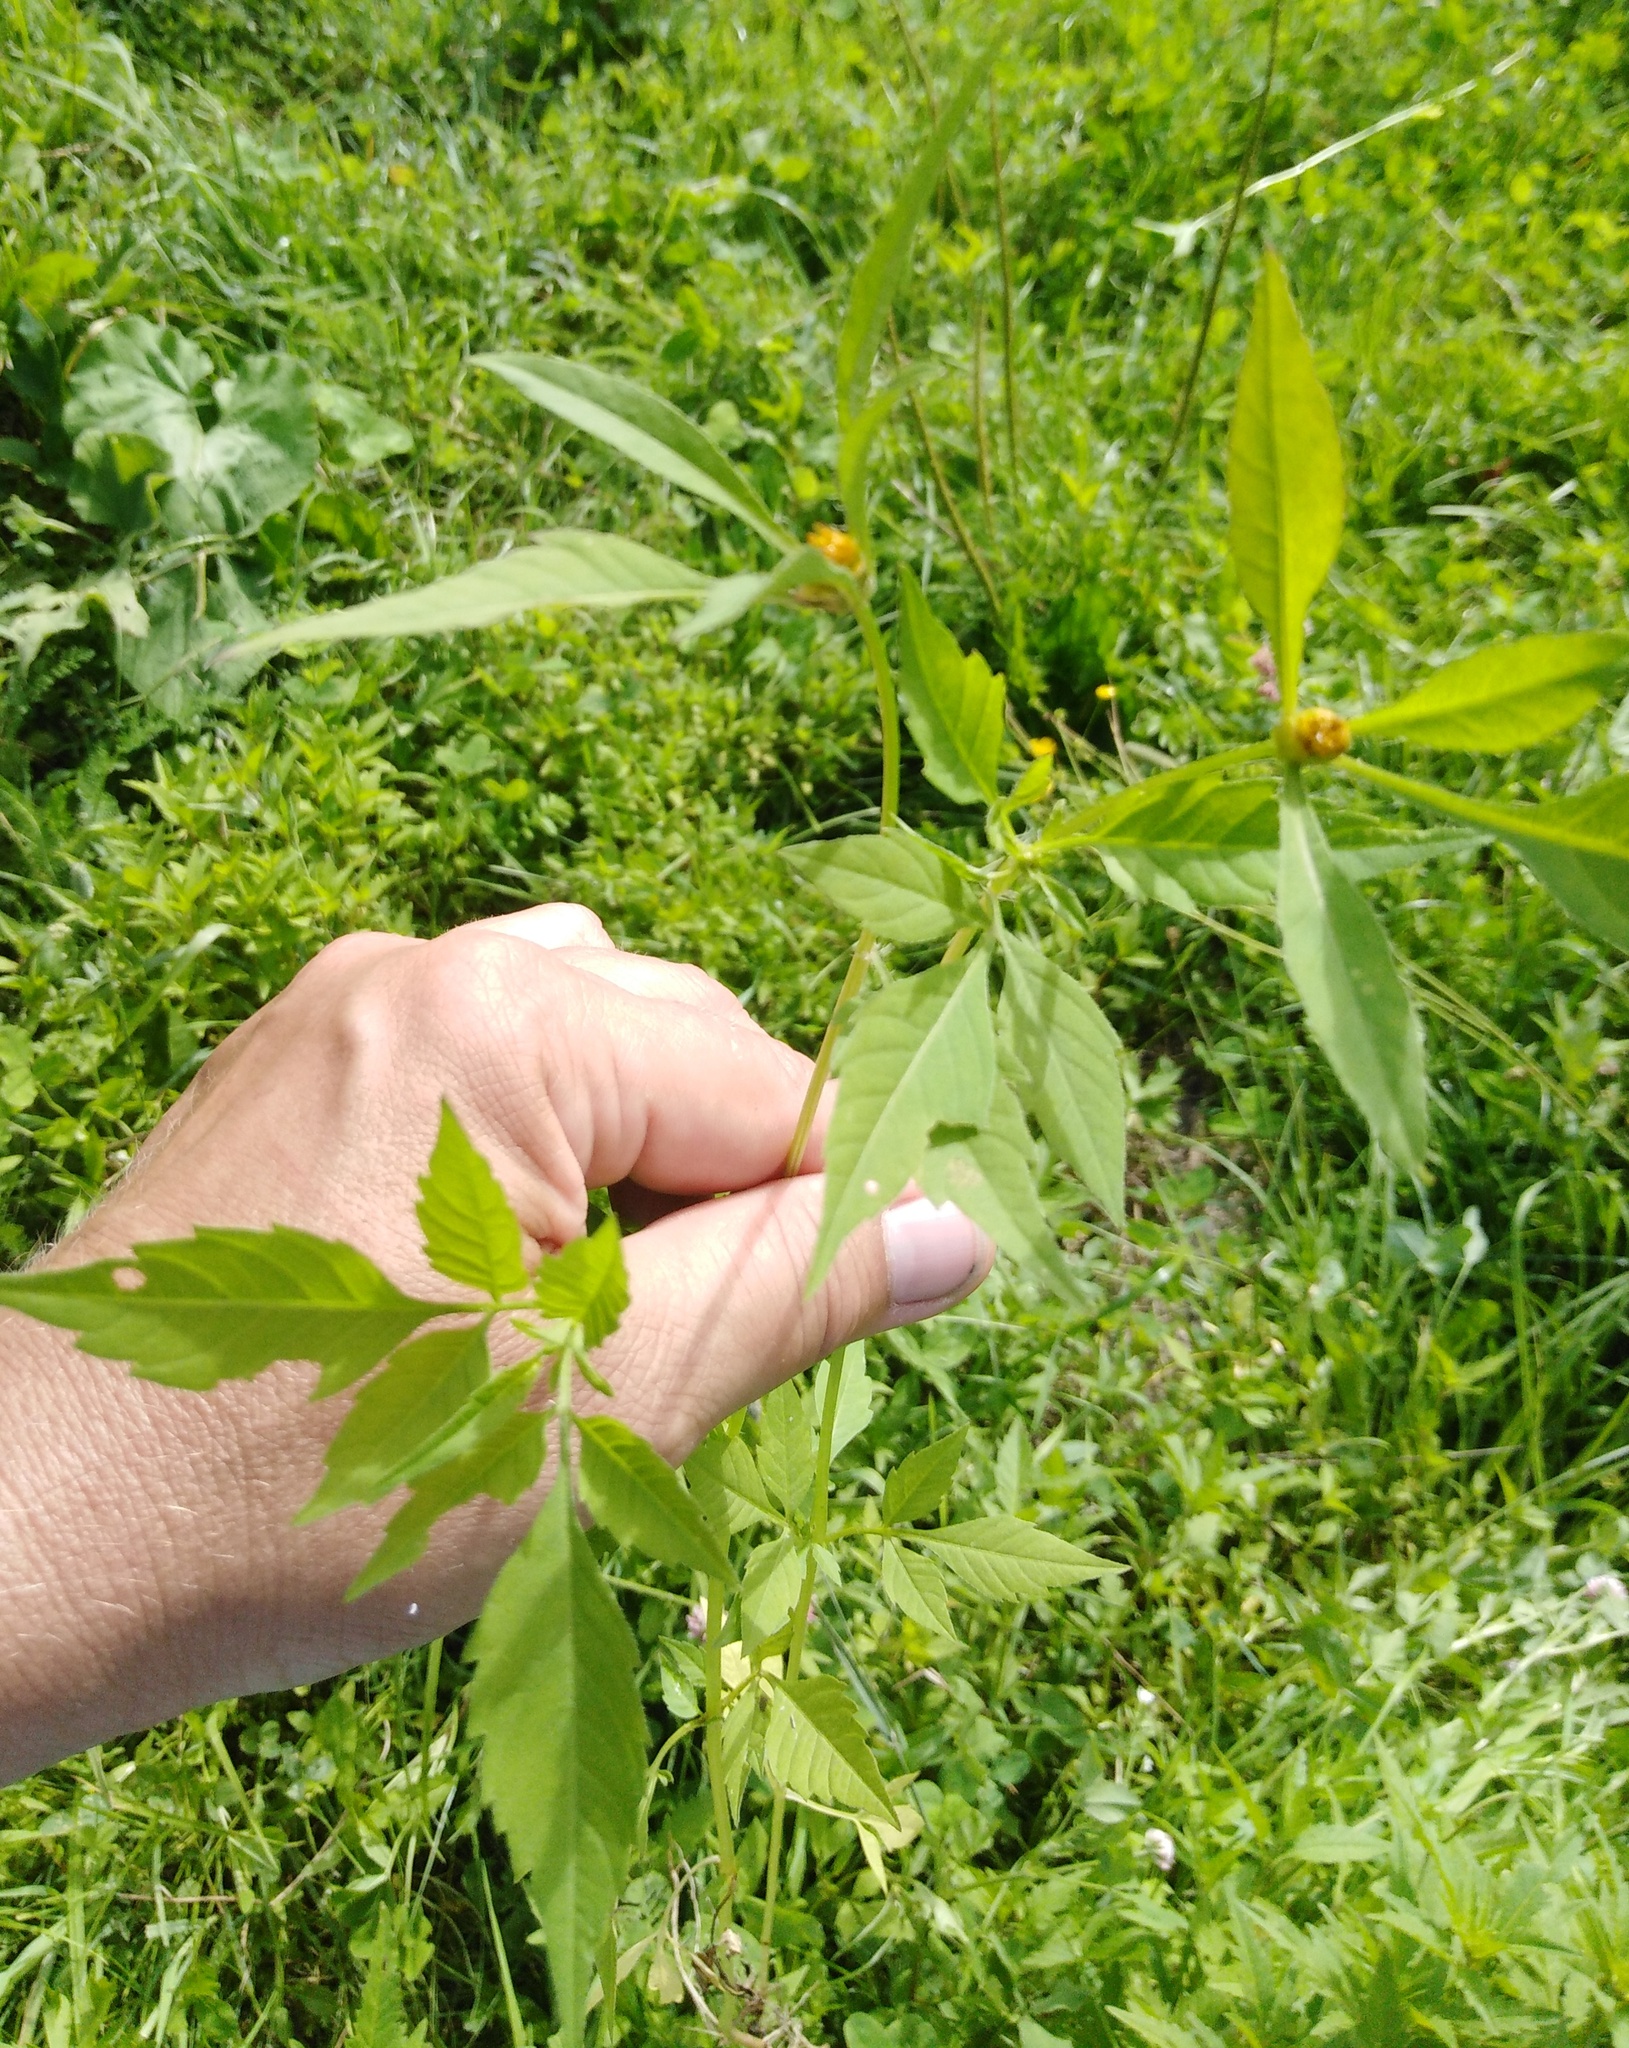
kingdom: Plantae
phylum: Tracheophyta
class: Magnoliopsida
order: Asterales
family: Asteraceae
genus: Bidens
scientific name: Bidens frondosa
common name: Beggarticks
